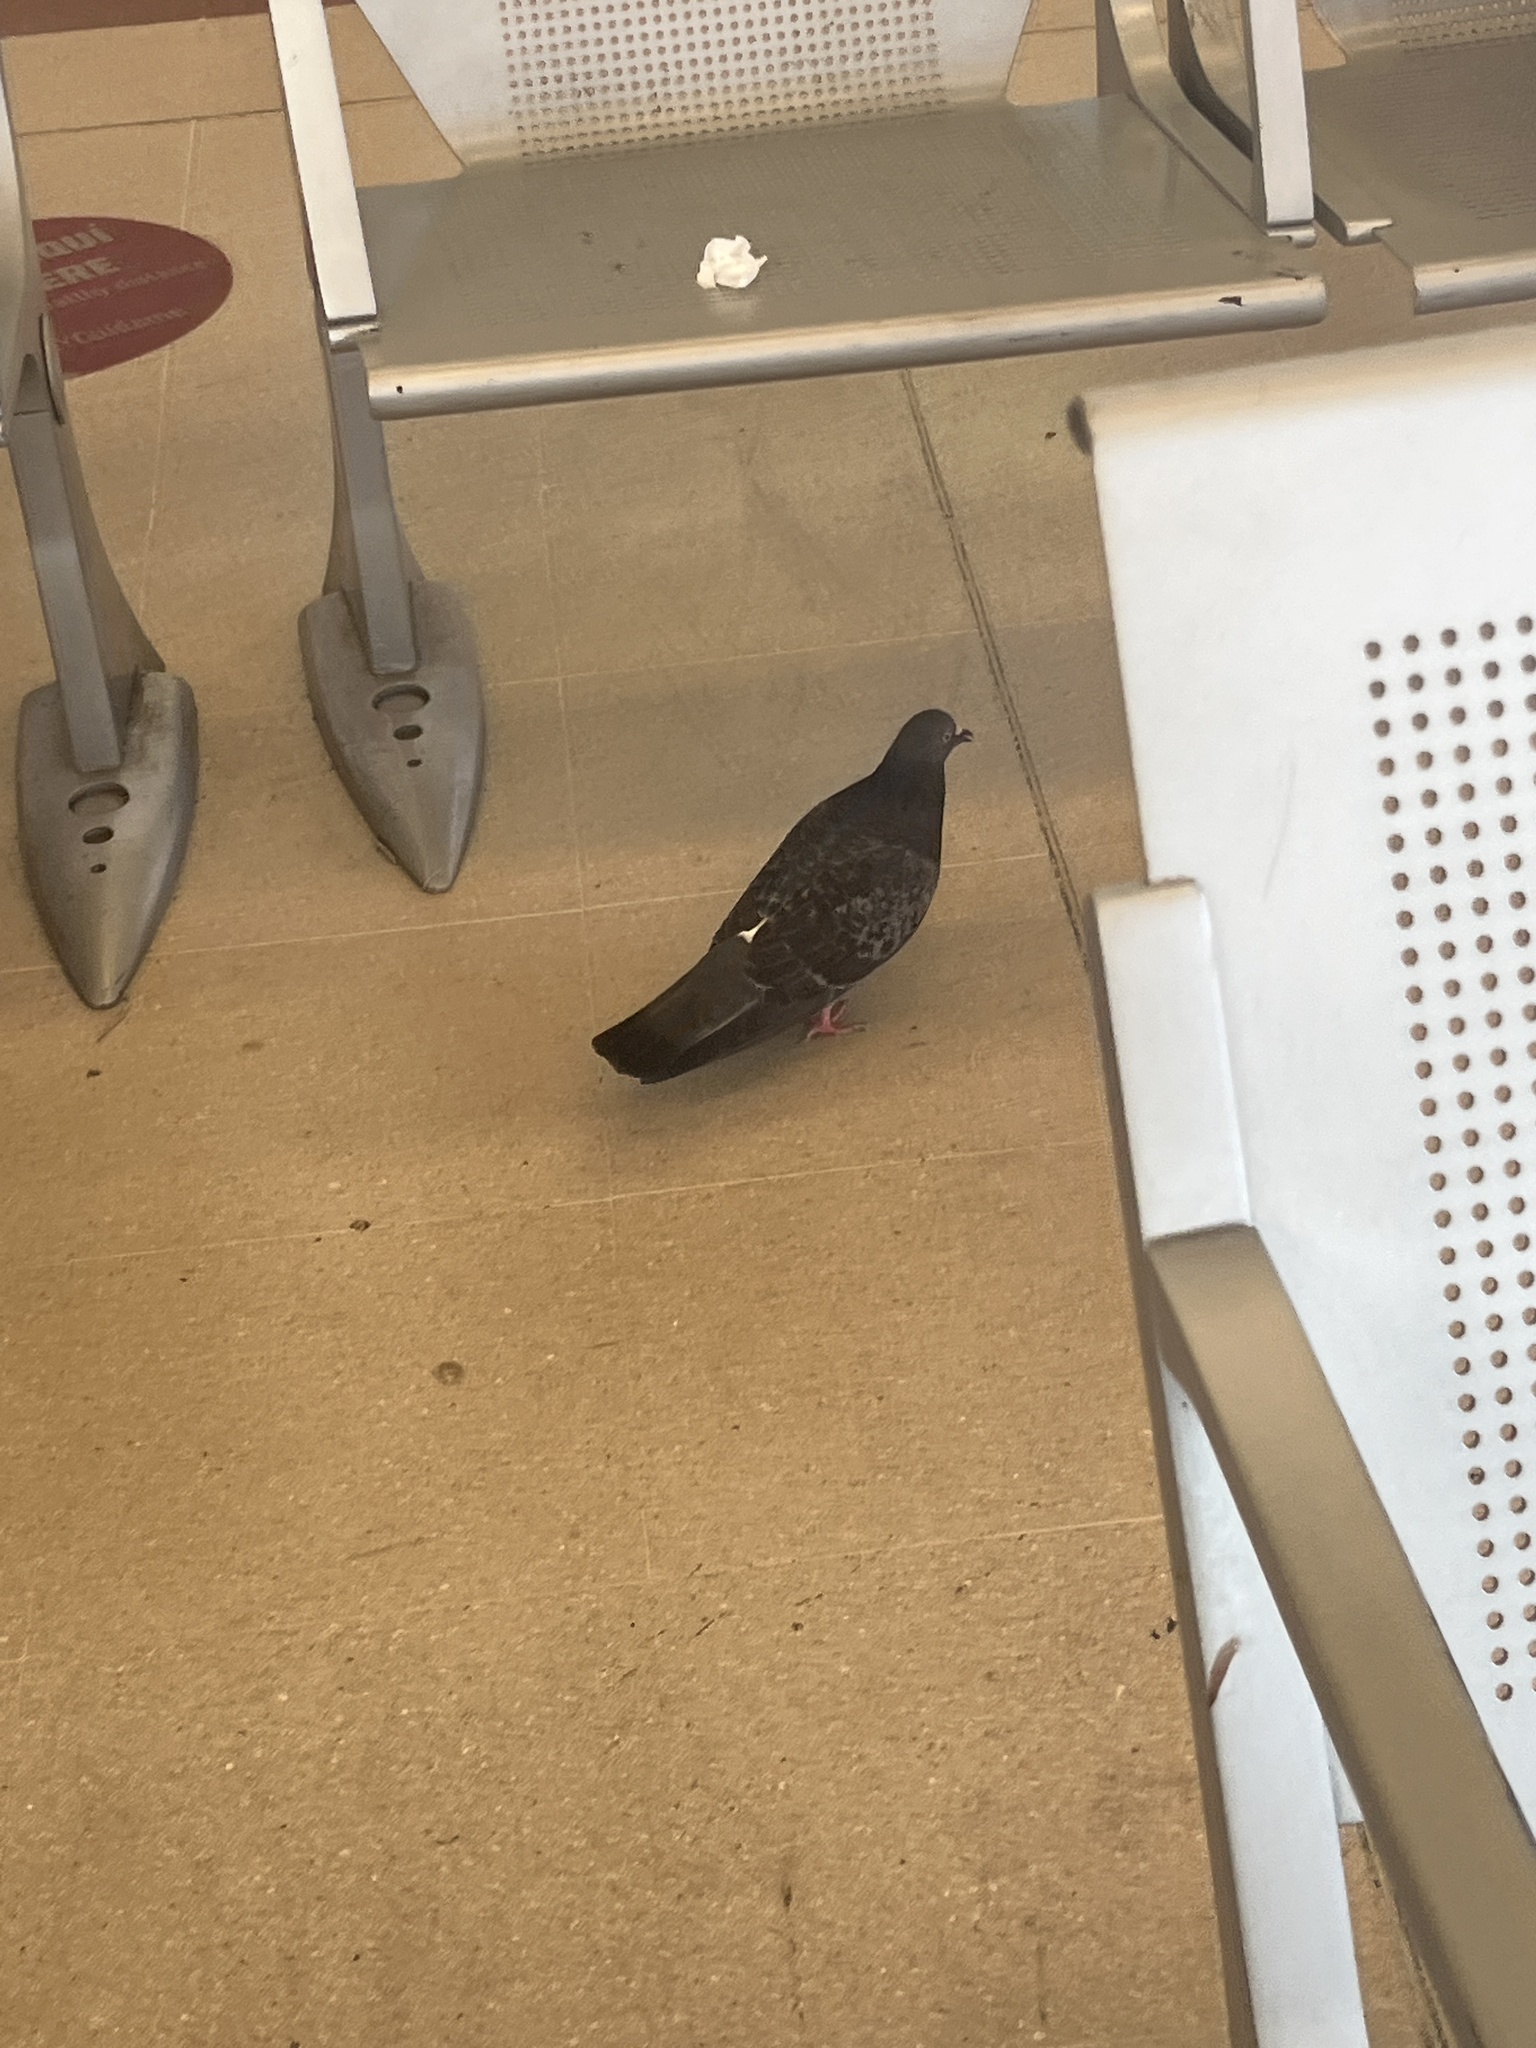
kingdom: Animalia
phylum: Chordata
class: Aves
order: Columbiformes
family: Columbidae
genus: Columba
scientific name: Columba livia
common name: Rock pigeon
